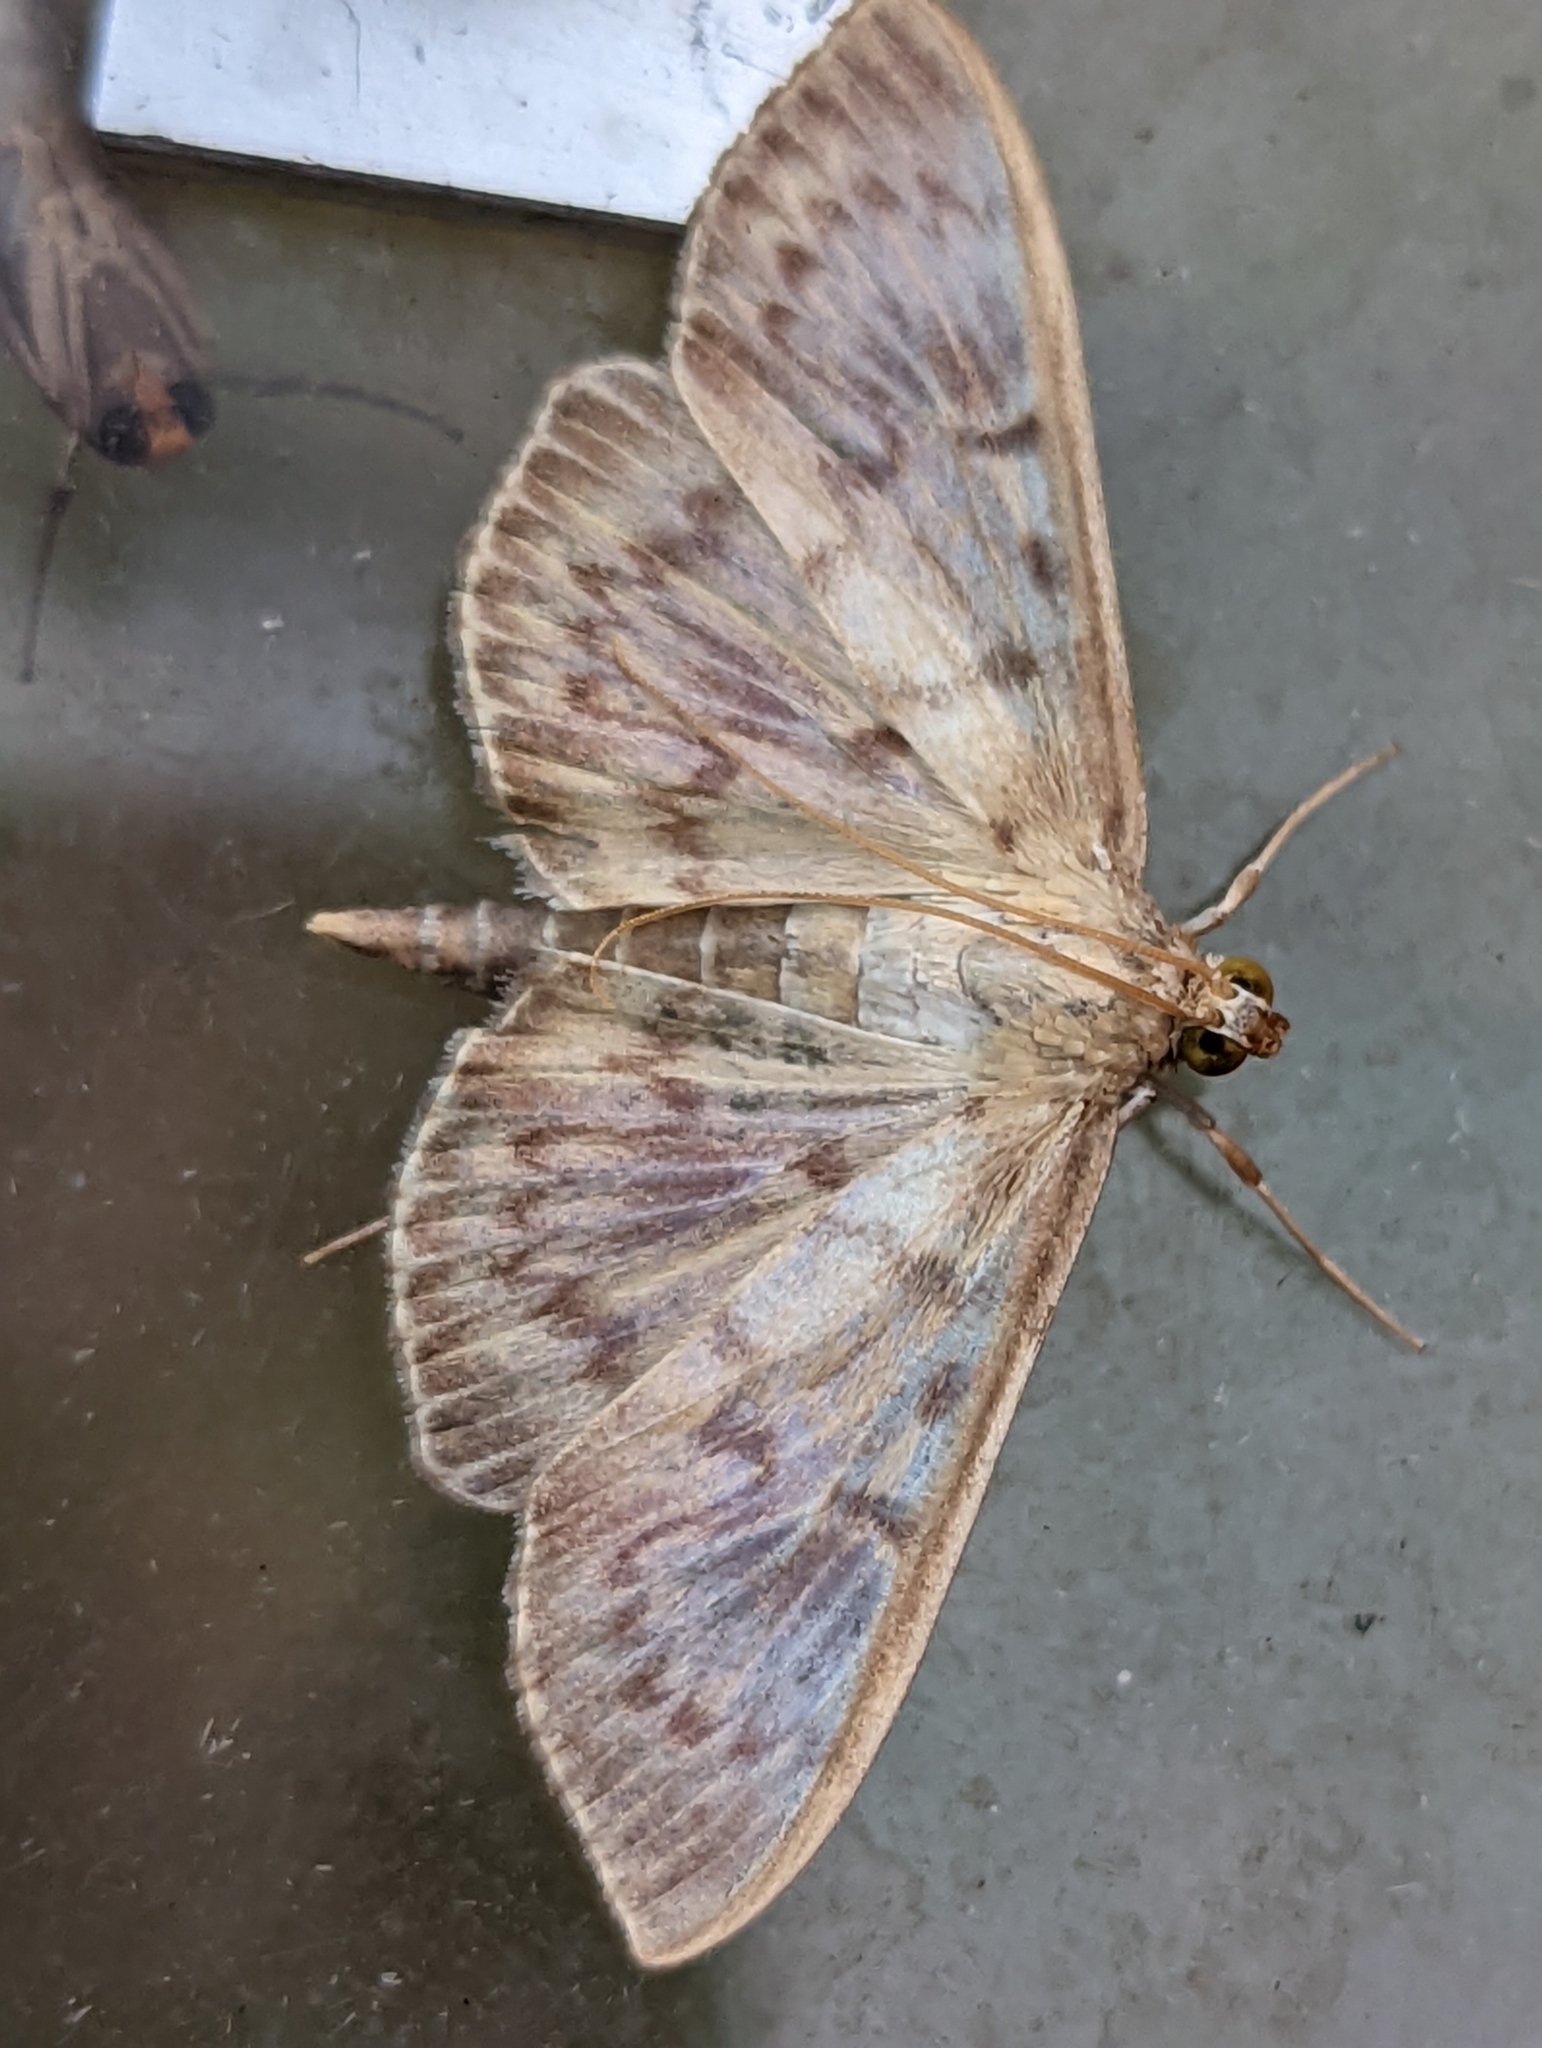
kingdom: Animalia
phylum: Arthropoda
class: Insecta
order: Lepidoptera
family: Crambidae
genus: Patania
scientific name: Patania ruralis
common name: Mother of pearl
